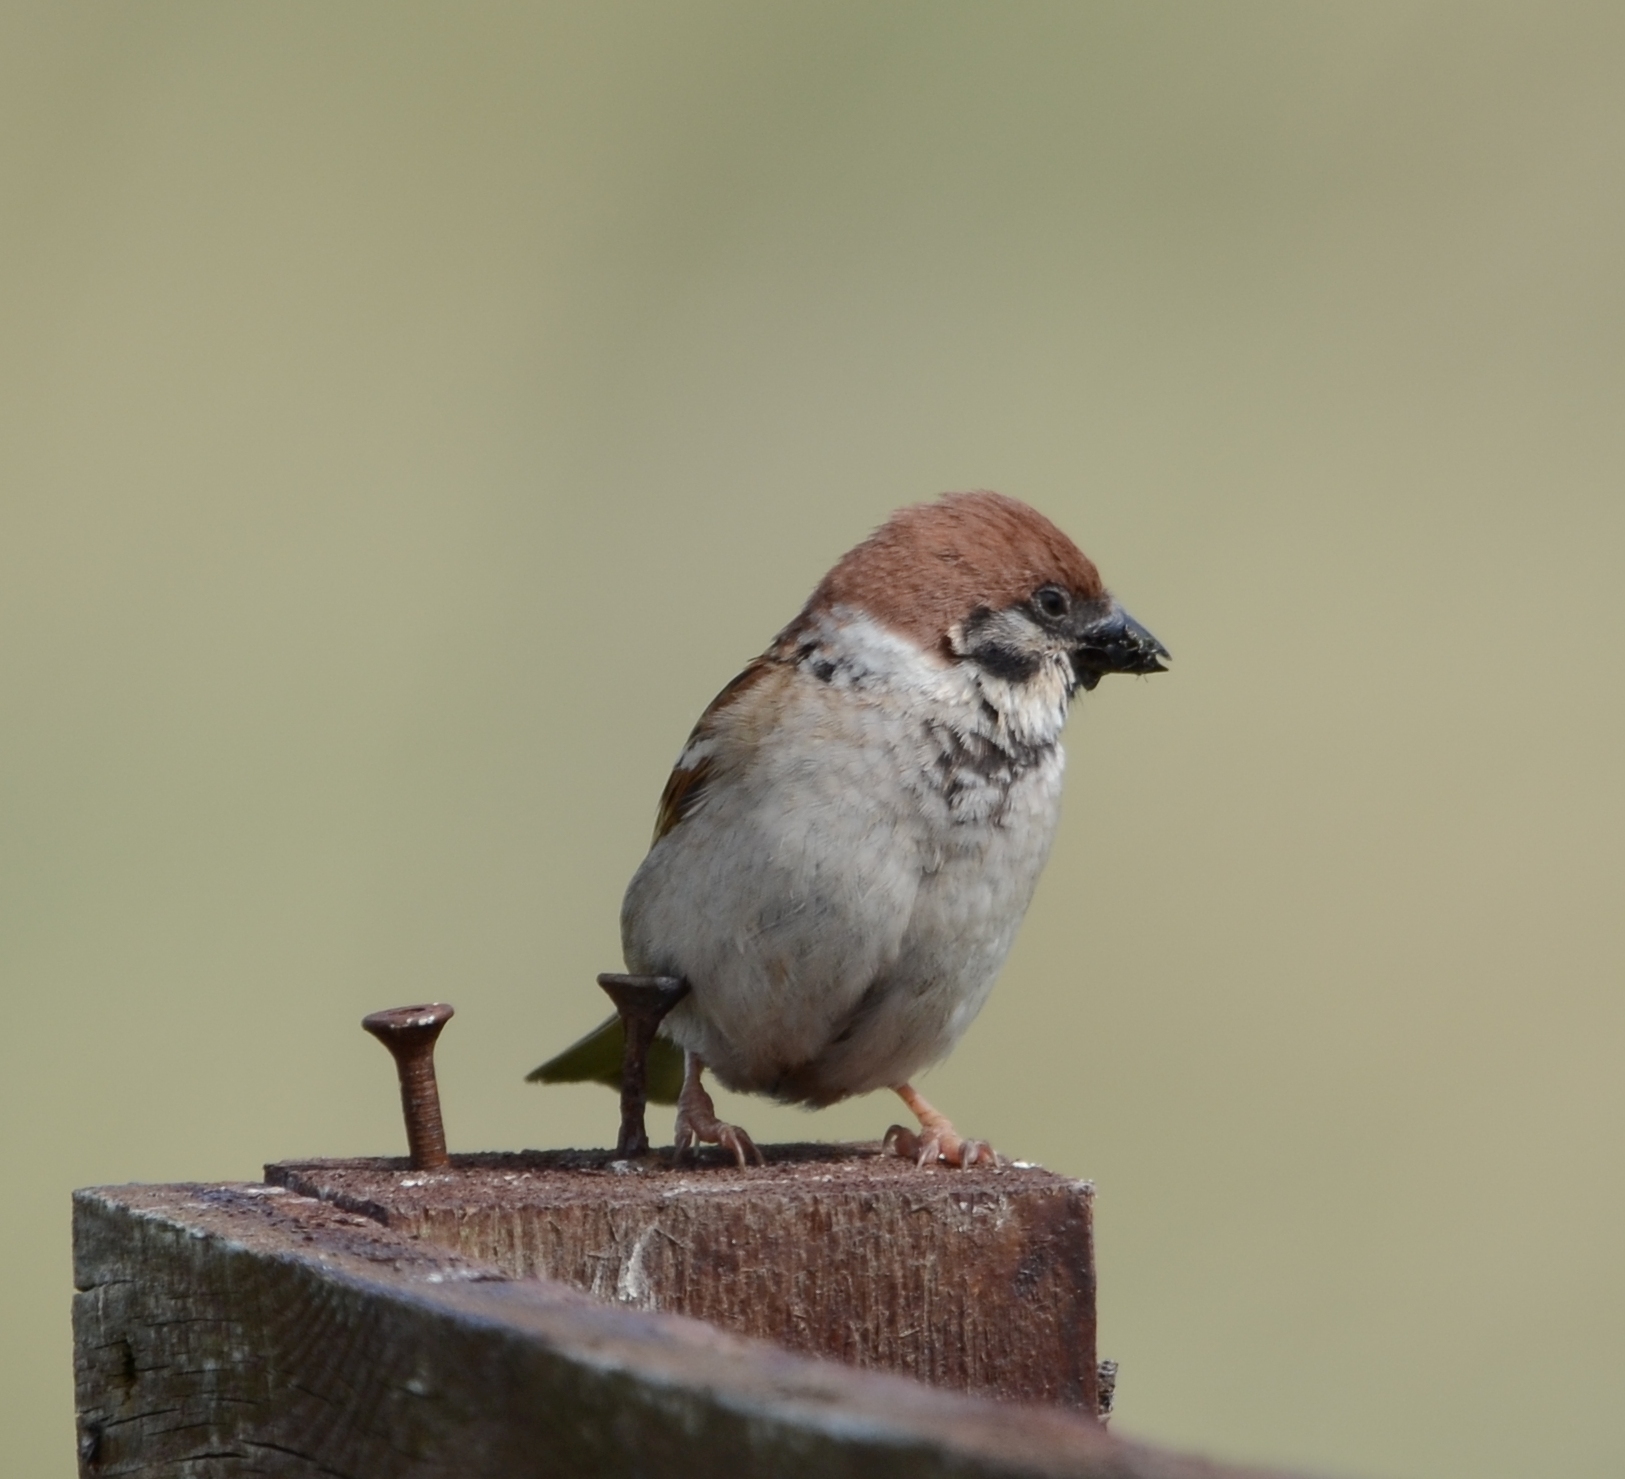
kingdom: Animalia
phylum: Chordata
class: Aves
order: Passeriformes
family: Passeridae
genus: Passer
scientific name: Passer montanus
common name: Eurasian tree sparrow
